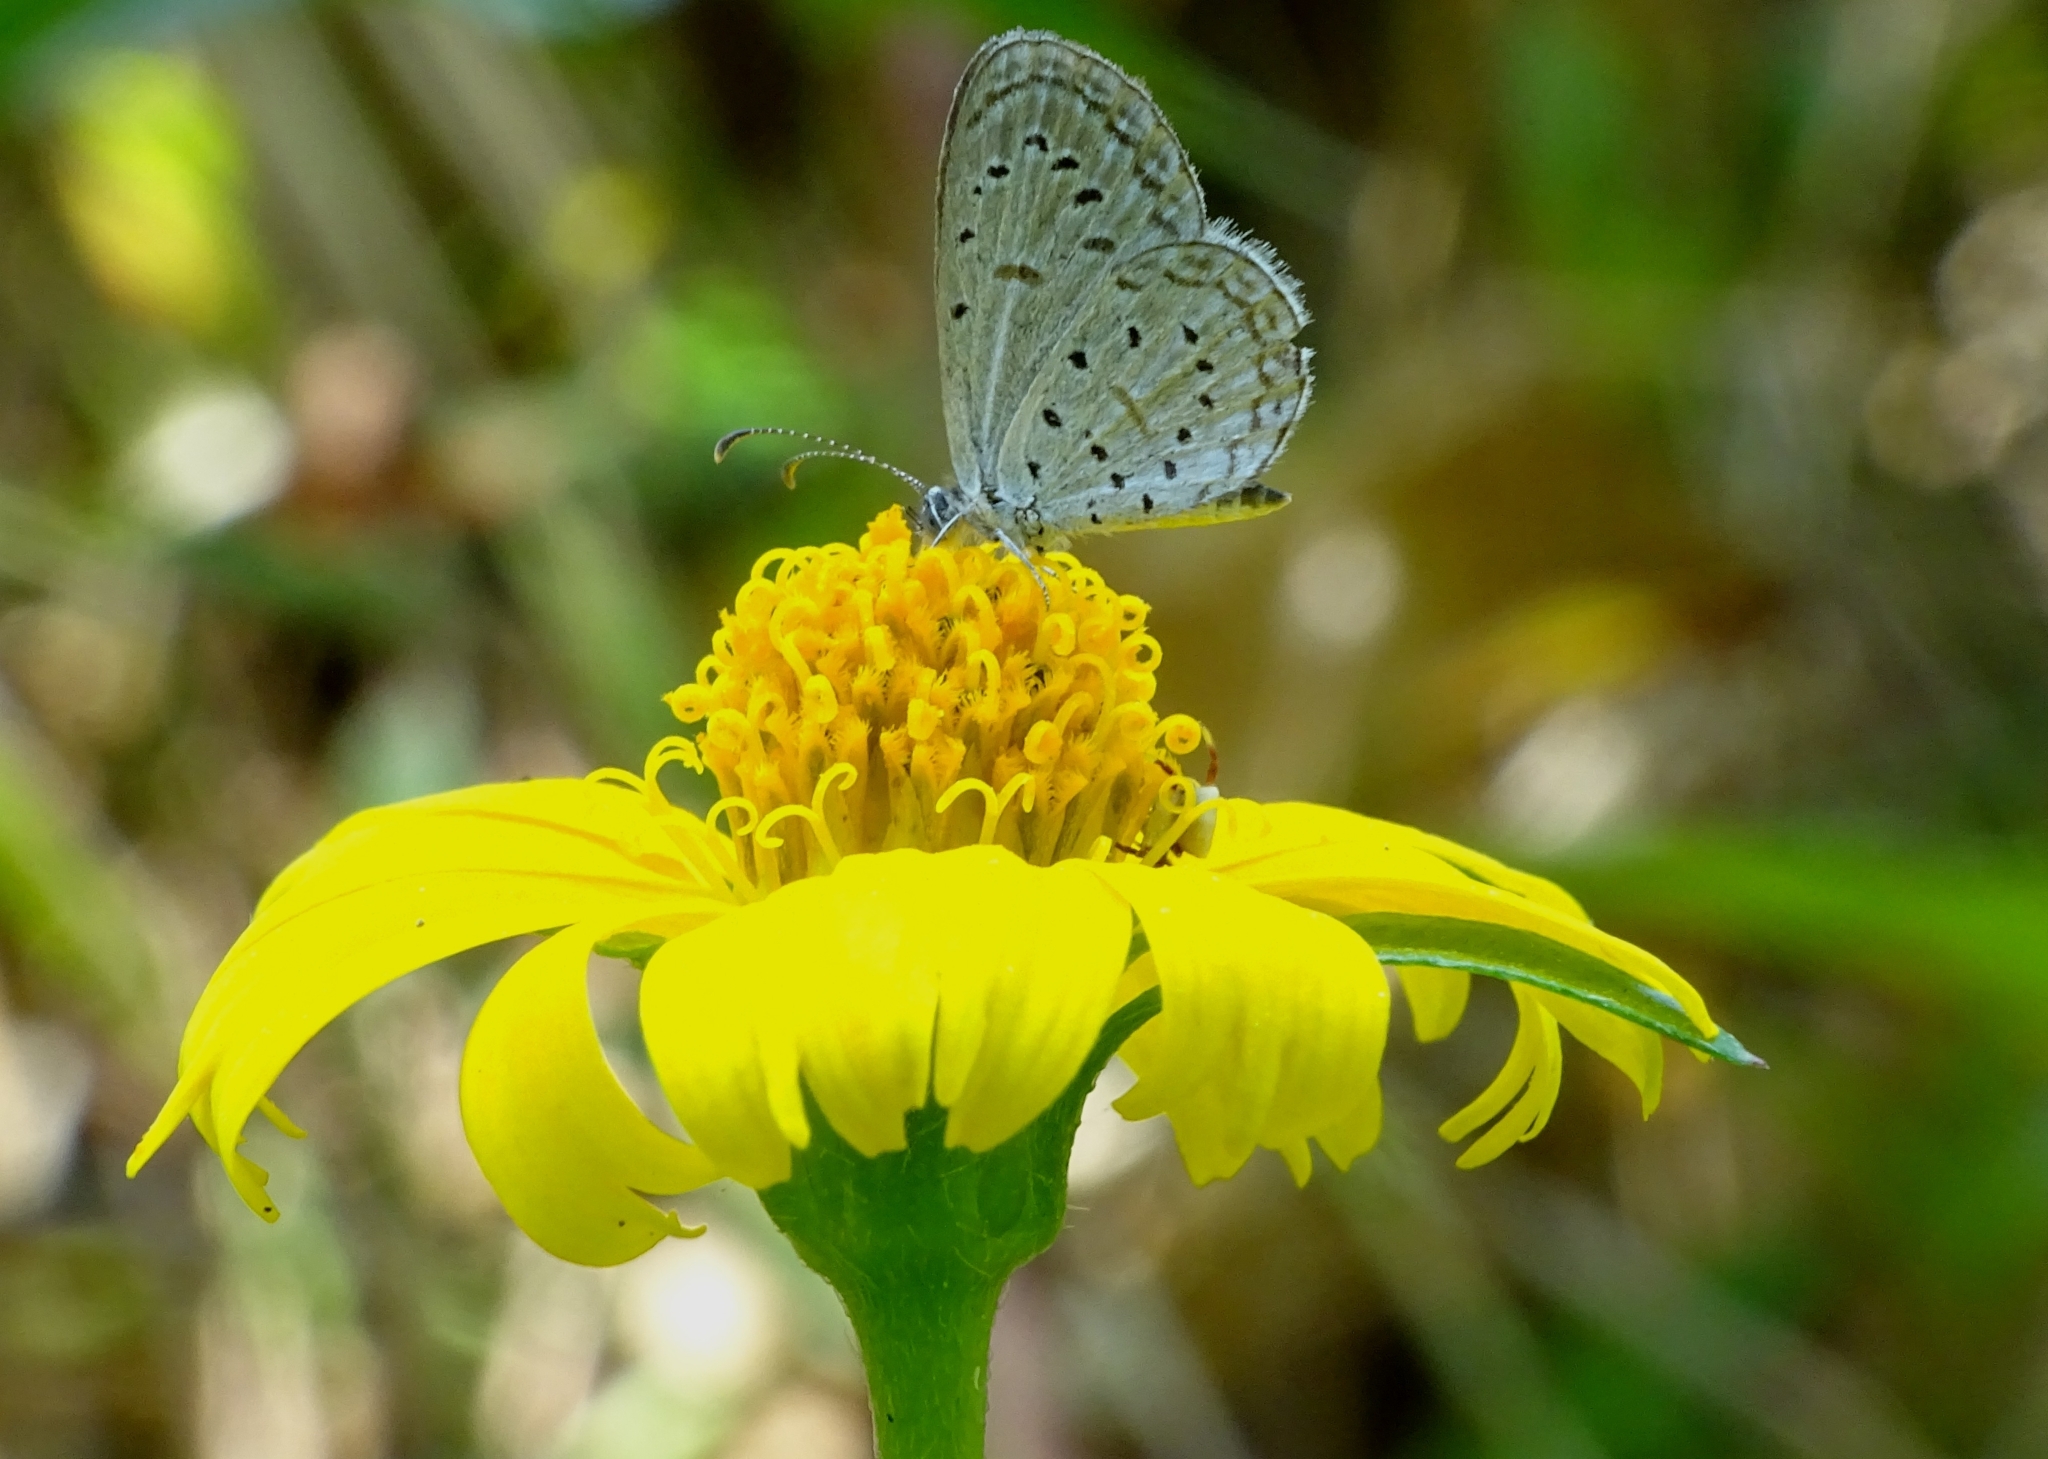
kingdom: Animalia
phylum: Arthropoda
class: Insecta
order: Lepidoptera
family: Lycaenidae
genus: Zizula
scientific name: Zizula hylax
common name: Gaika blue
